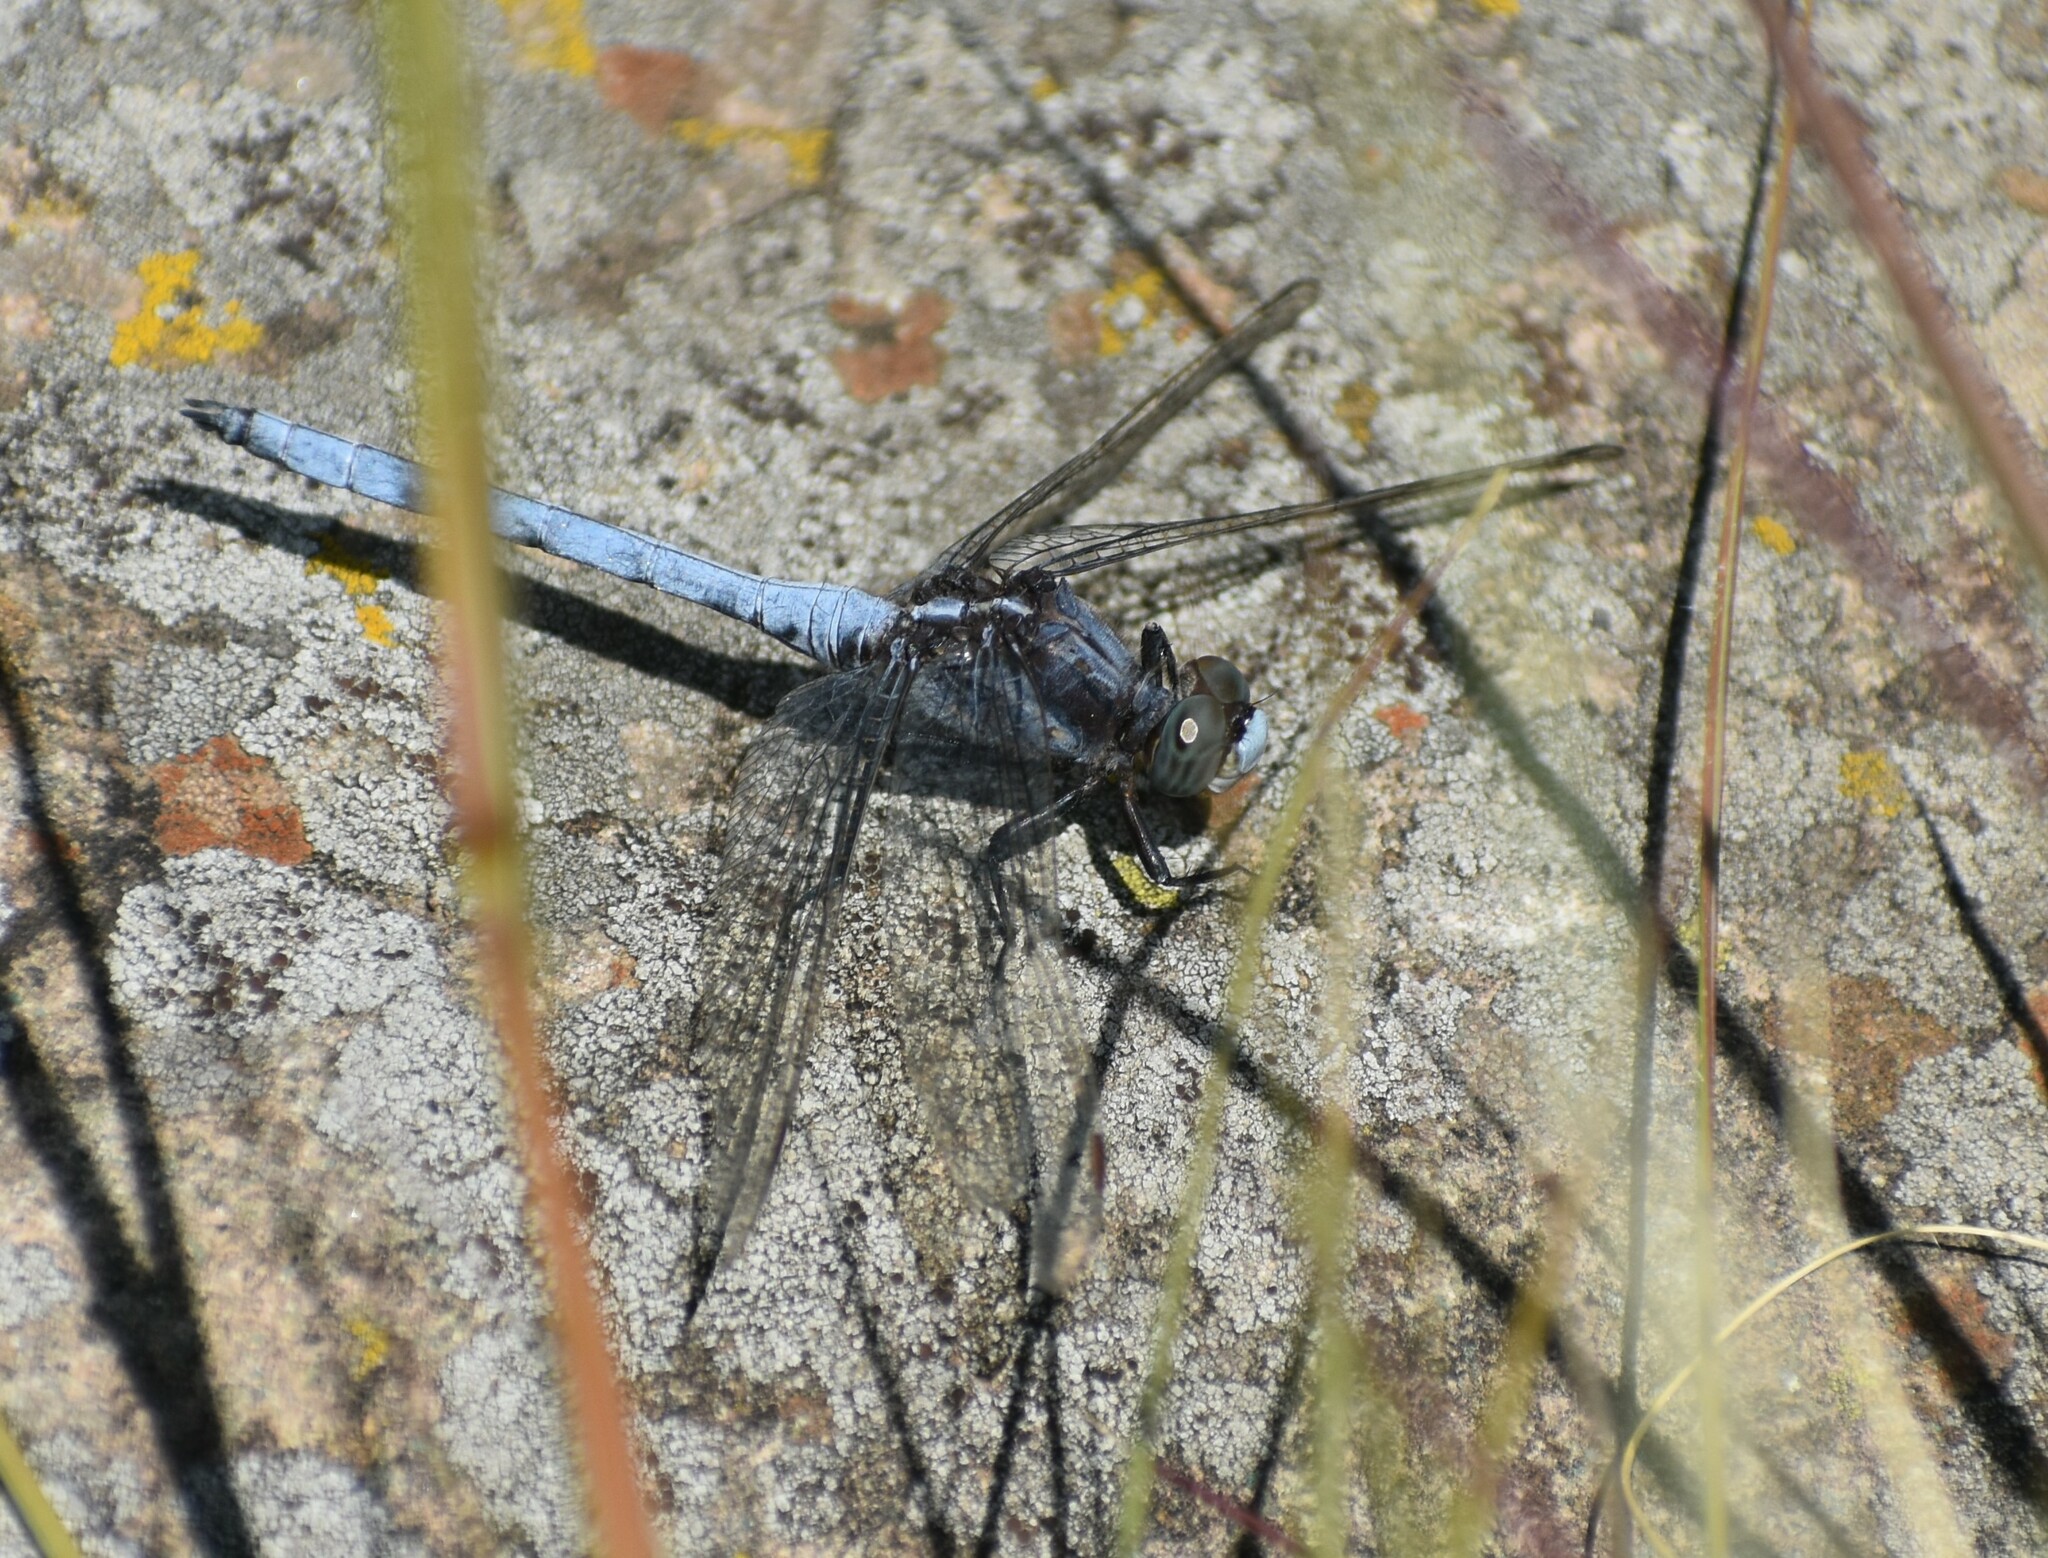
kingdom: Animalia
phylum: Arthropoda
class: Insecta
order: Odonata
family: Libellulidae
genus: Orthetrum
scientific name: Orthetrum caffrum
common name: Two-striped skimmer
